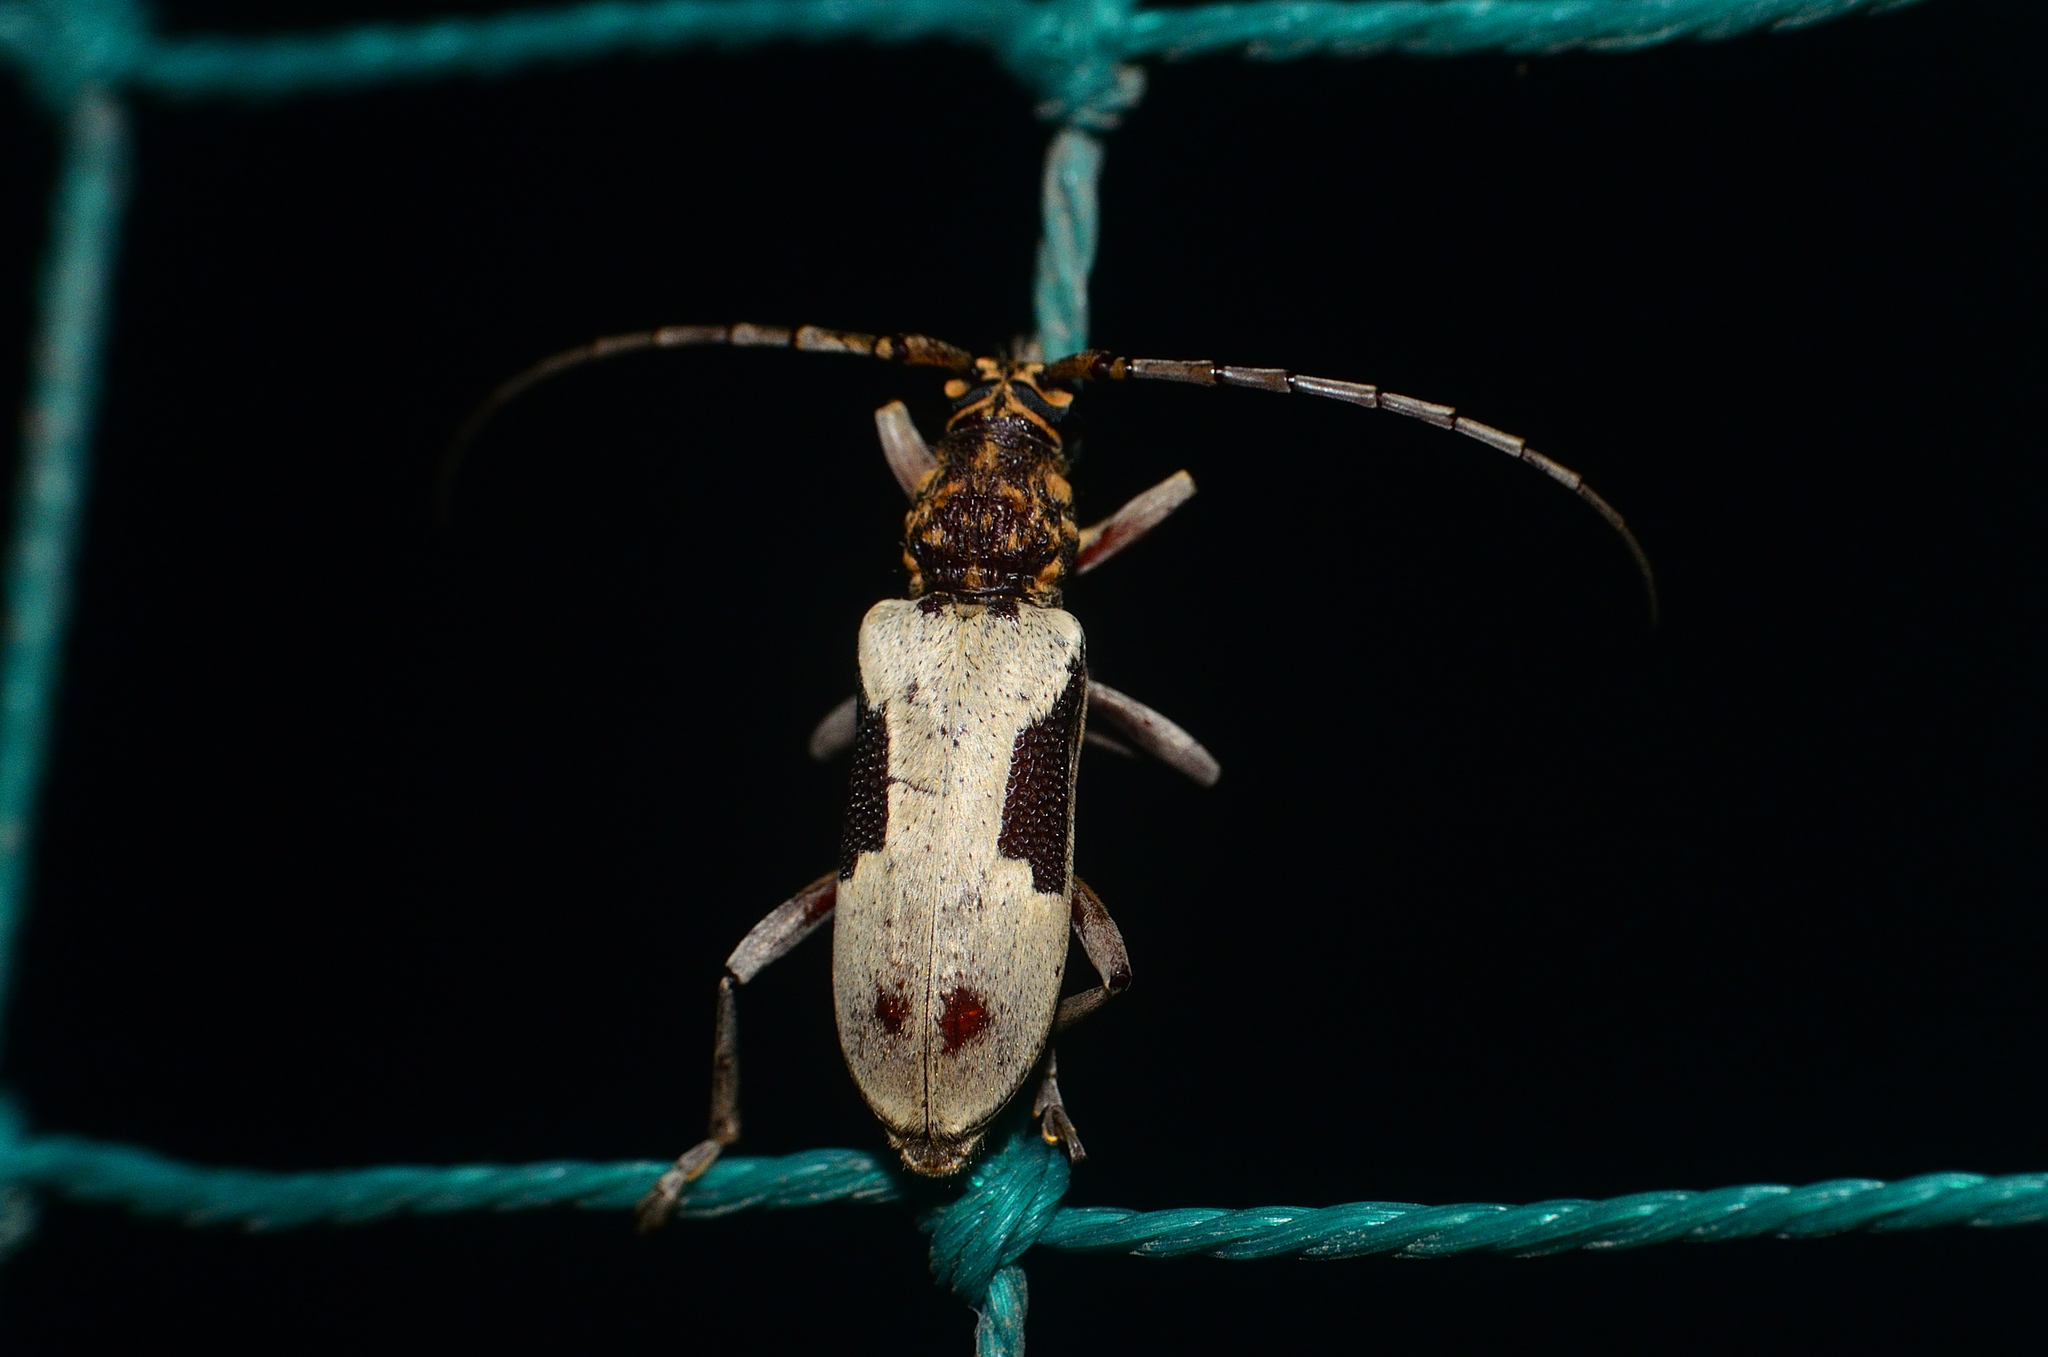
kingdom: Animalia
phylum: Arthropoda
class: Insecta
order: Coleoptera
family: Cerambycidae
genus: Xoanodera
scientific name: Xoanodera amoena
